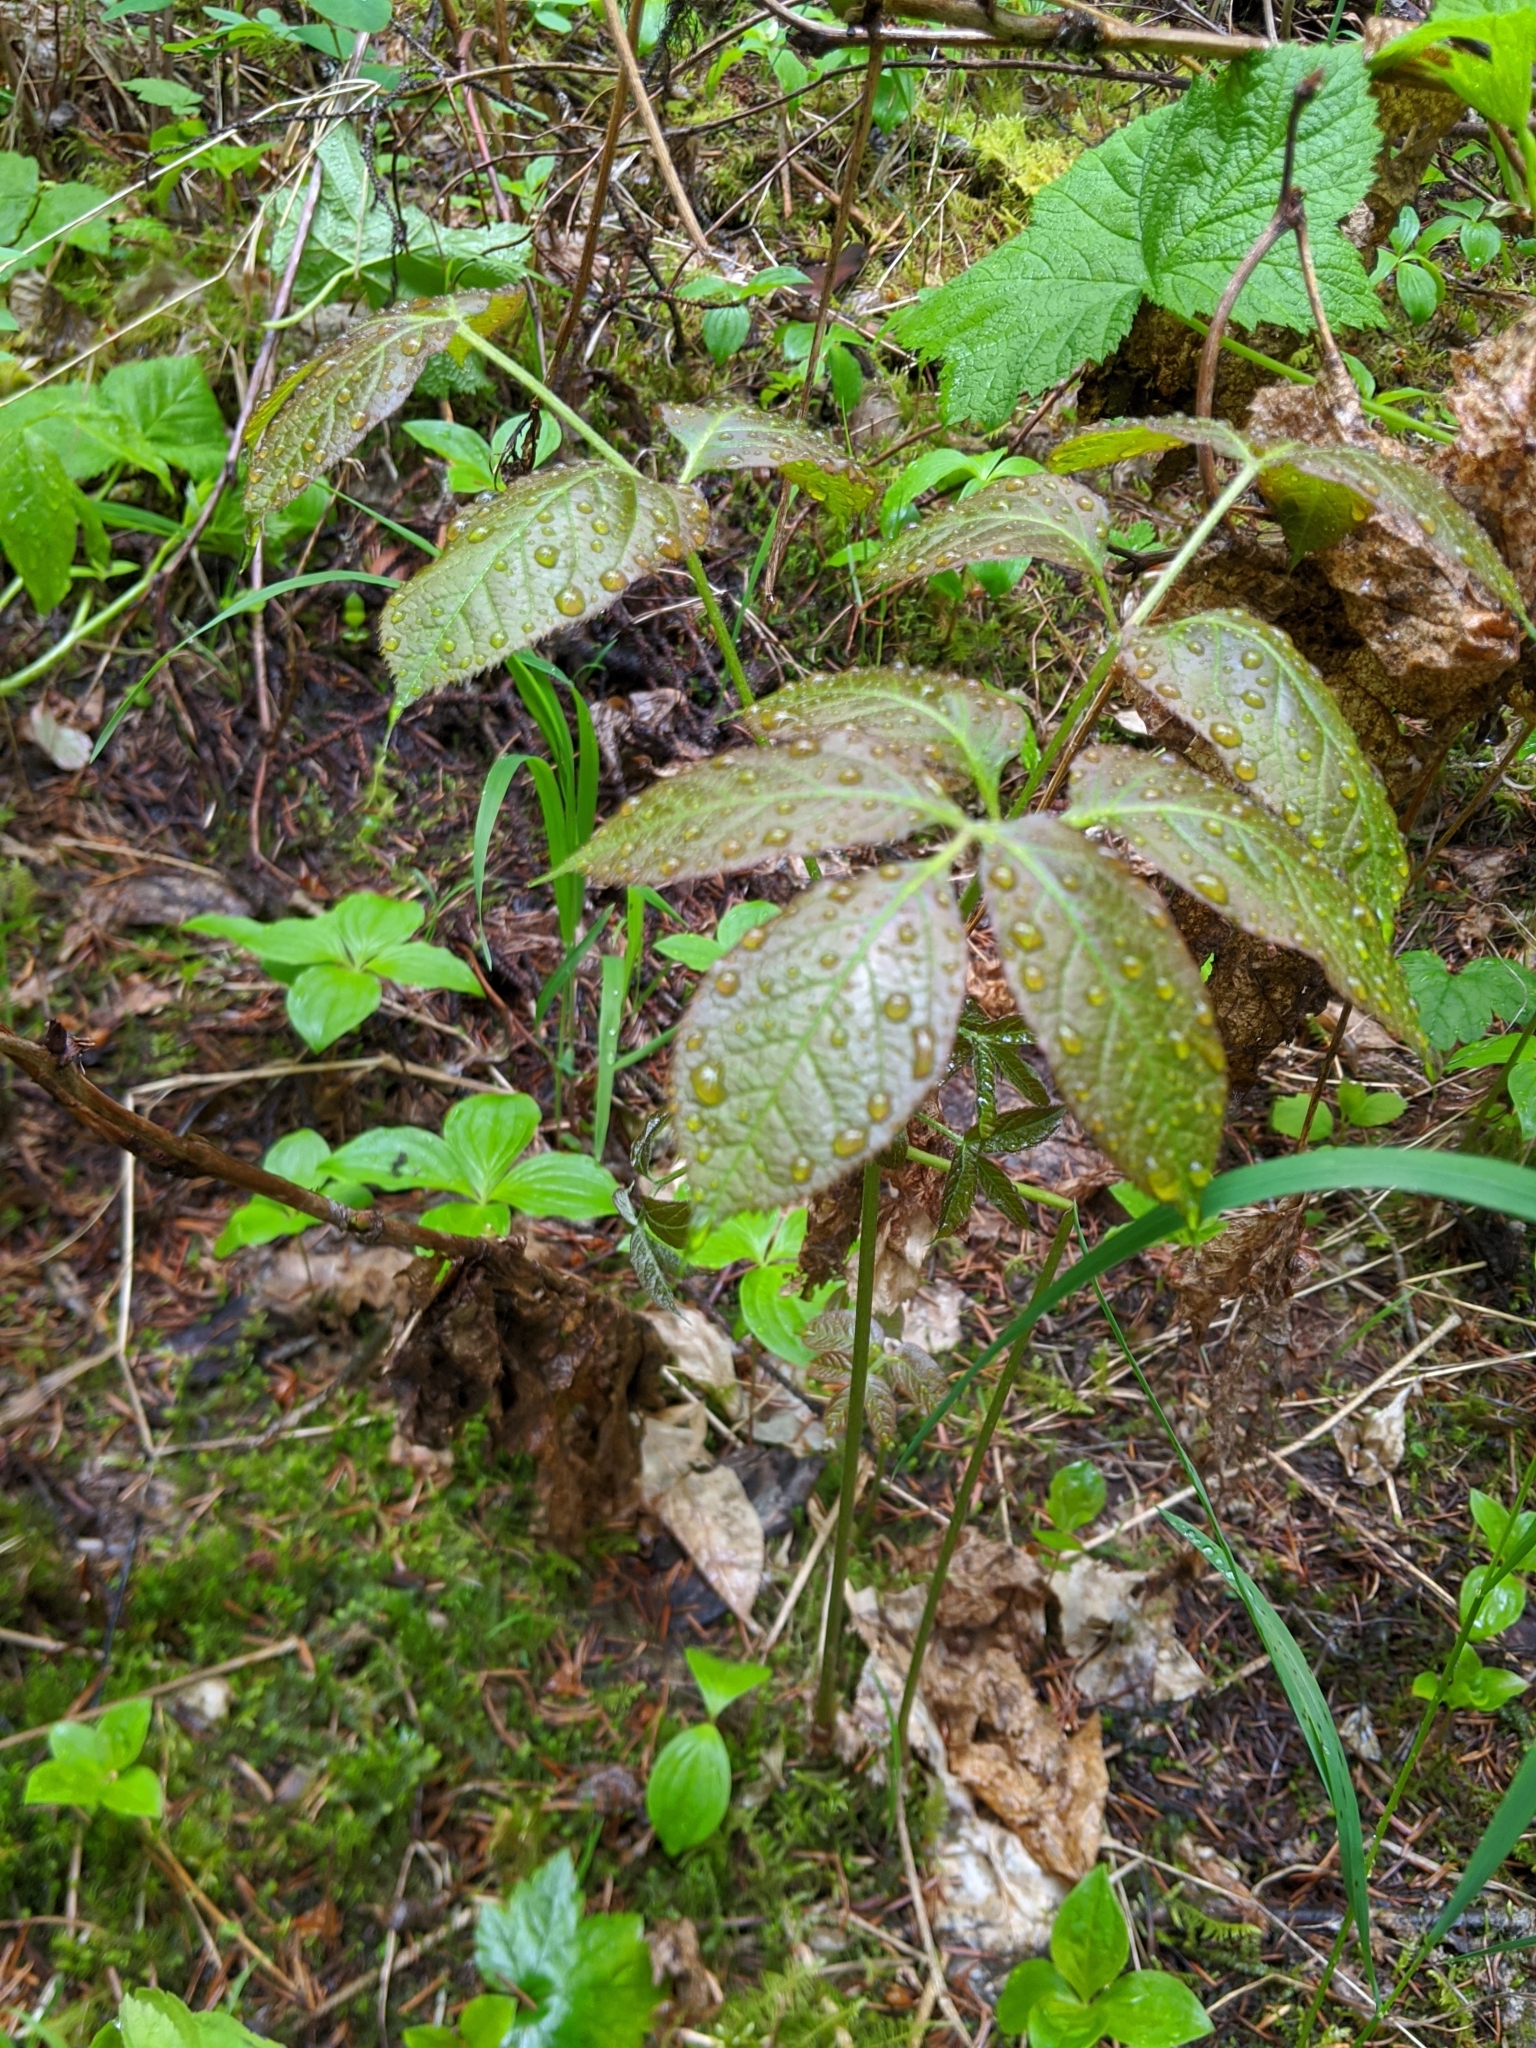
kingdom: Plantae
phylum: Tracheophyta
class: Magnoliopsida
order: Apiales
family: Araliaceae
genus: Aralia
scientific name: Aralia nudicaulis
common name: Wild sarsaparilla
